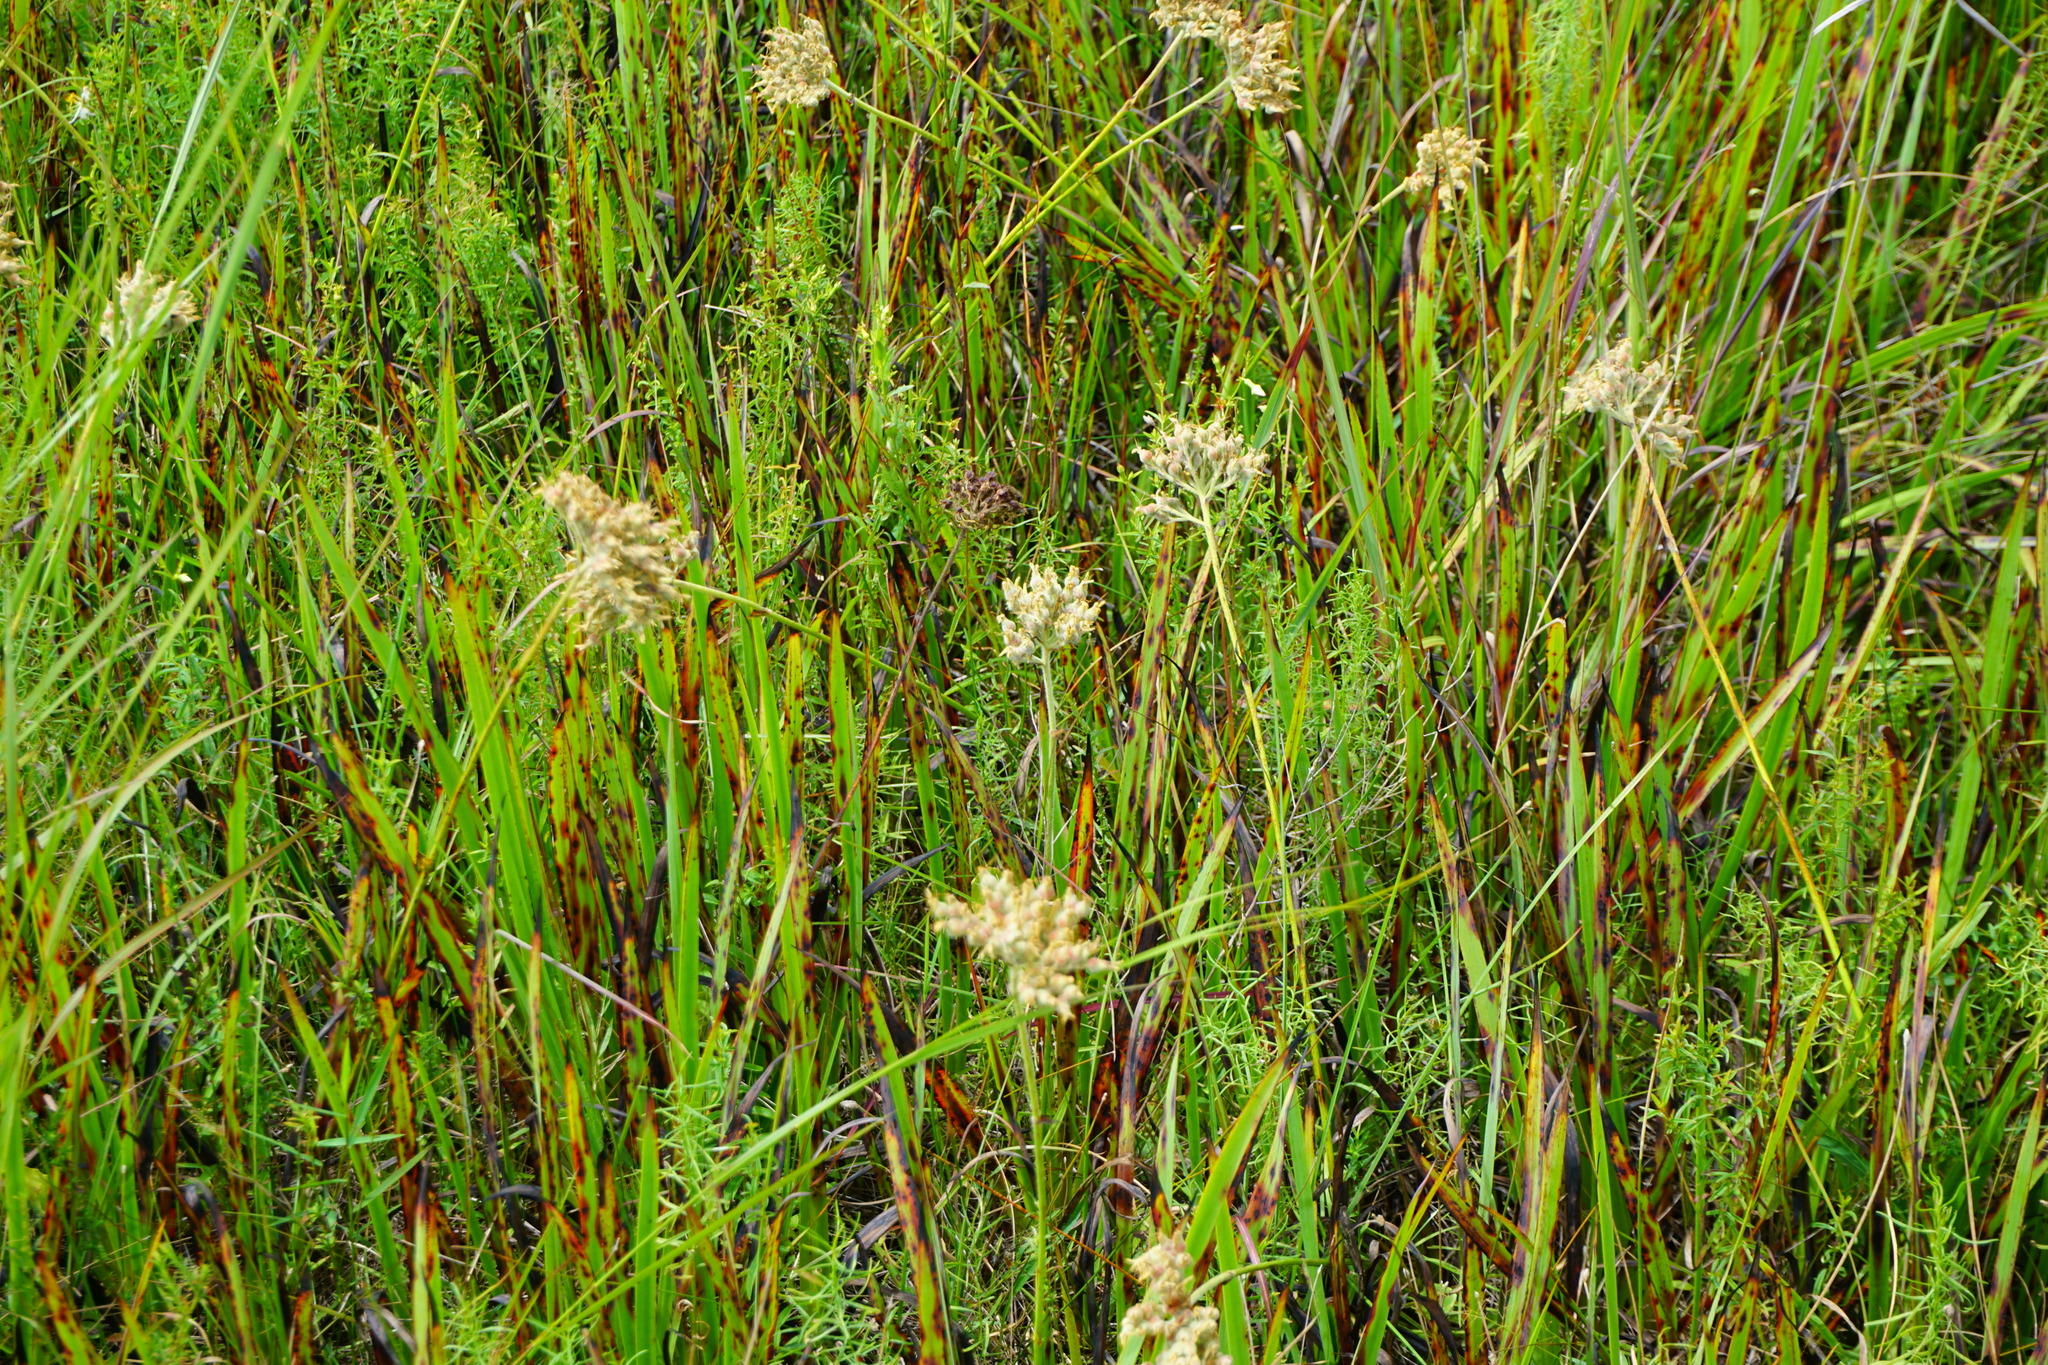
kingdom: Plantae
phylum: Tracheophyta
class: Liliopsida
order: Commelinales
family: Haemodoraceae
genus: Lachnanthes
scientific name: Lachnanthes caroliana
